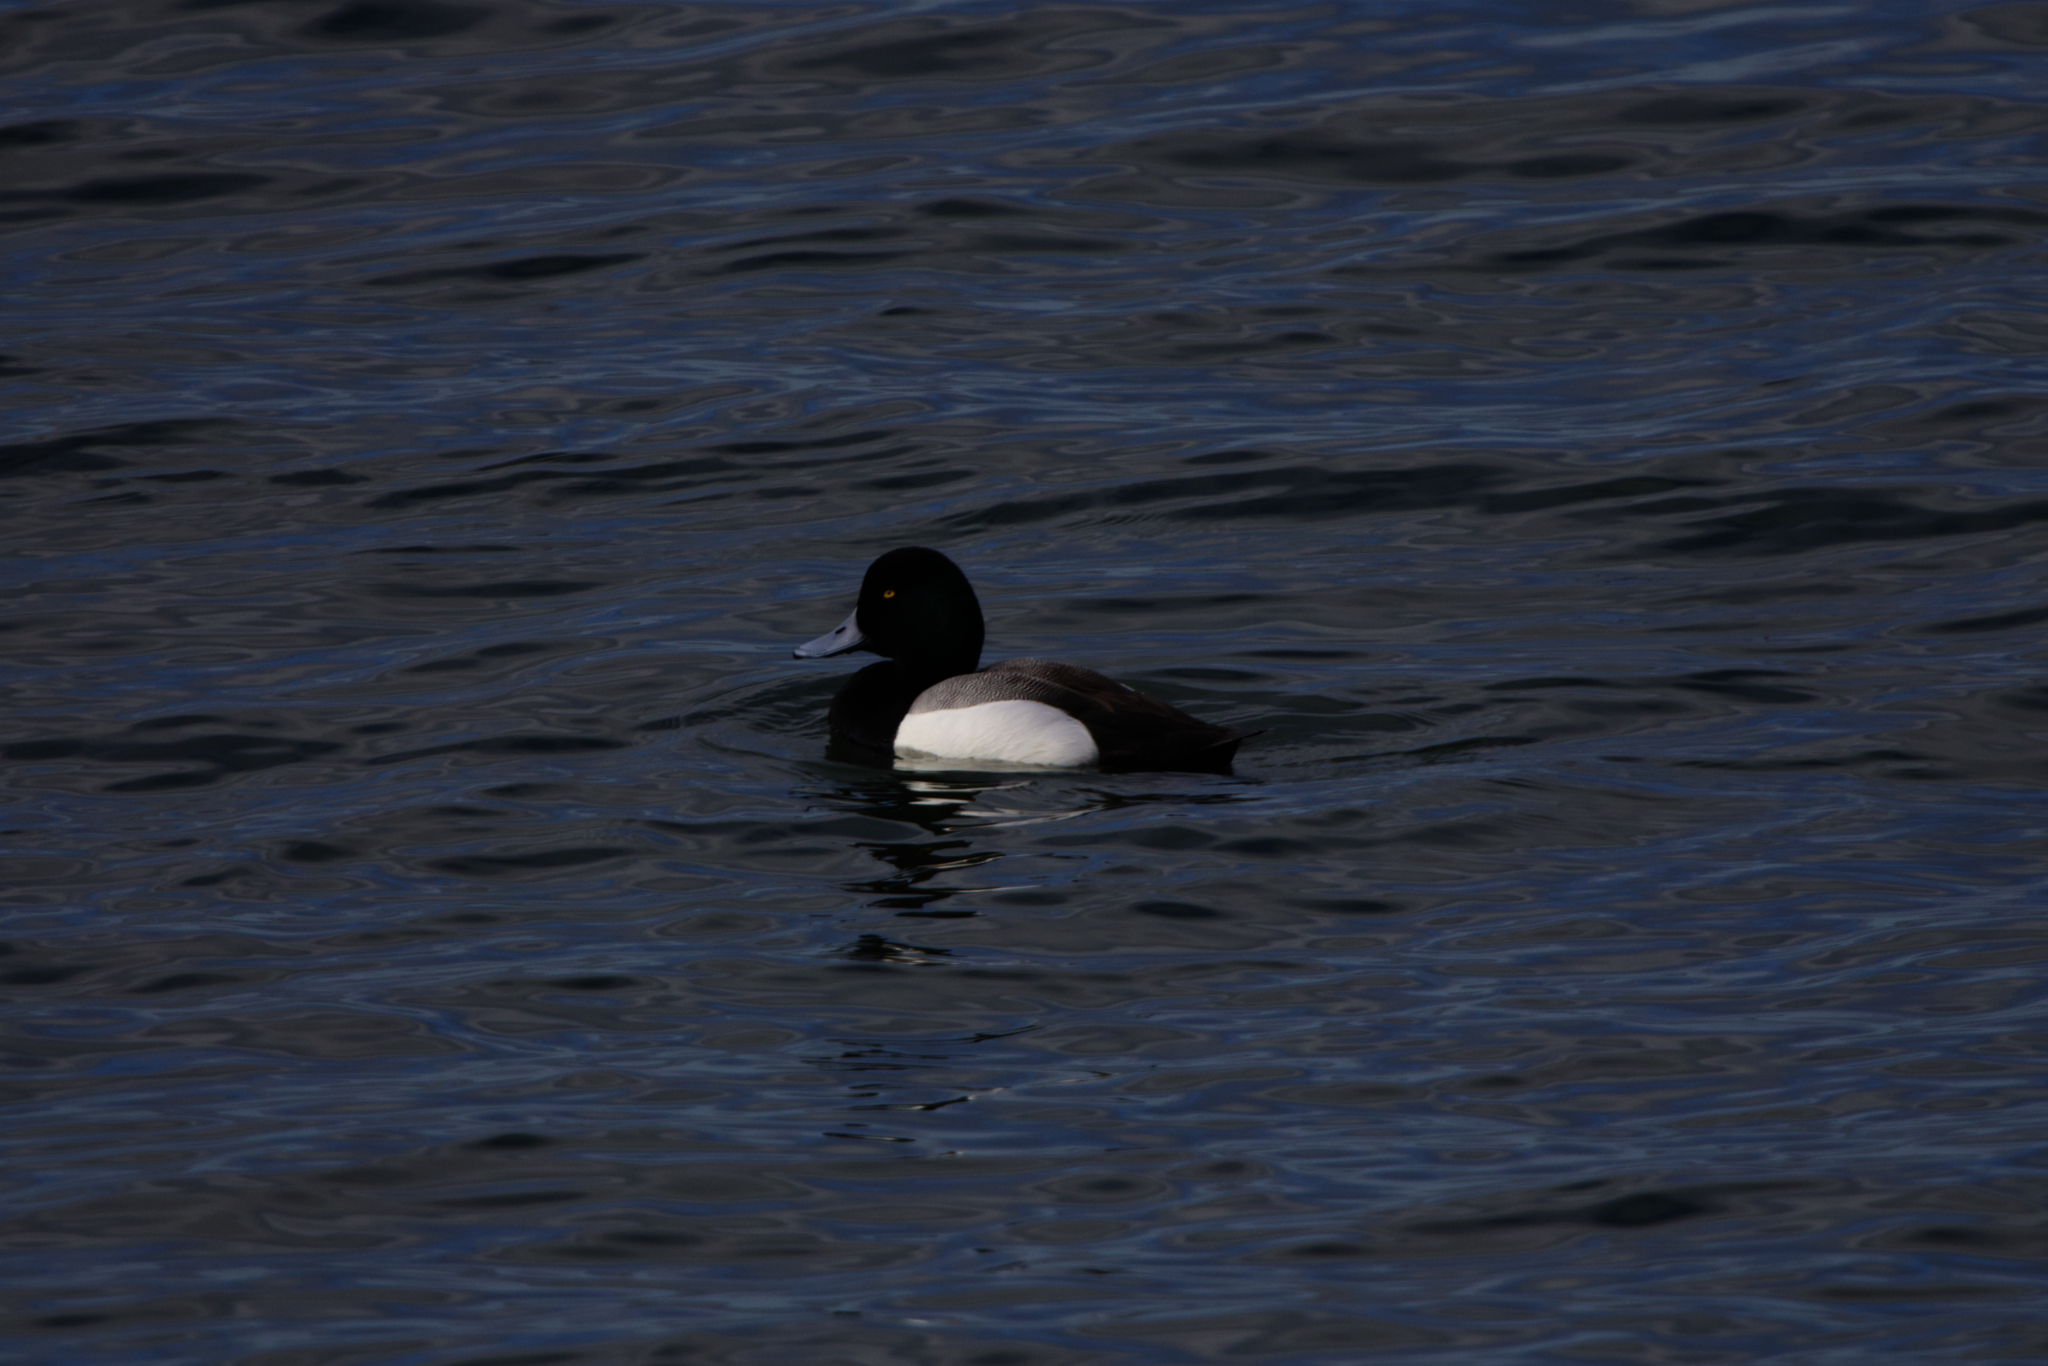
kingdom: Animalia
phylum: Chordata
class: Aves
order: Anseriformes
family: Anatidae
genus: Aythya
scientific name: Aythya marila
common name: Greater scaup
